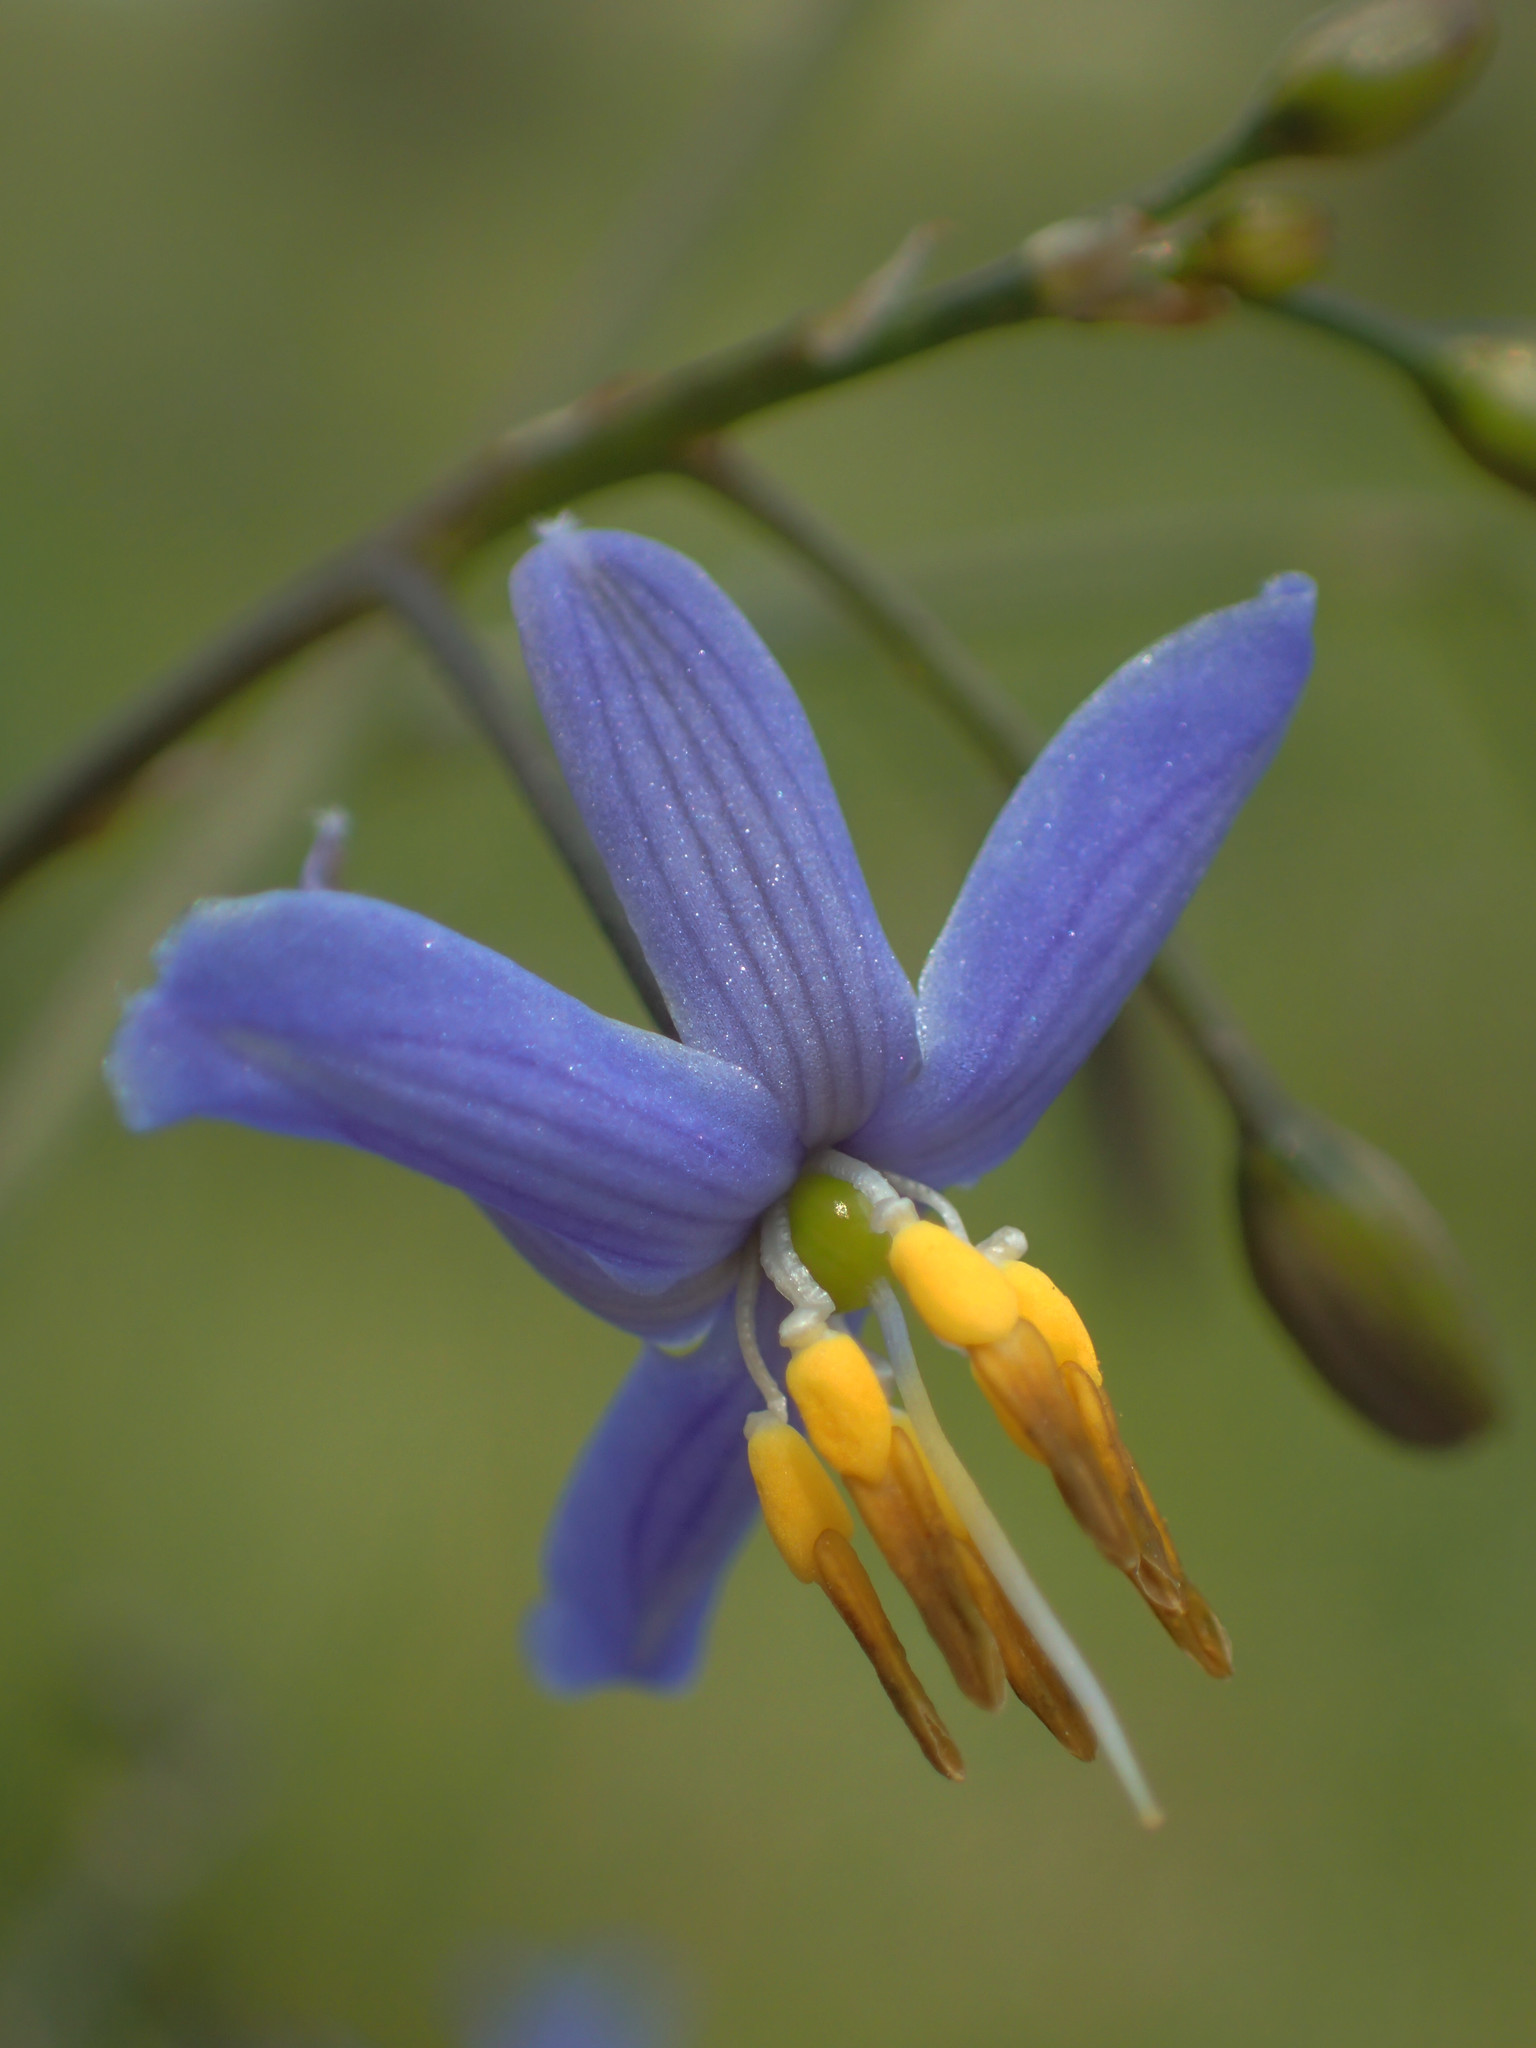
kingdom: Plantae
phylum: Tracheophyta
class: Liliopsida
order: Asparagales
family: Asphodelaceae
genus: Dianella
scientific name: Dianella ensifolia
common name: New zealand lilyplant
